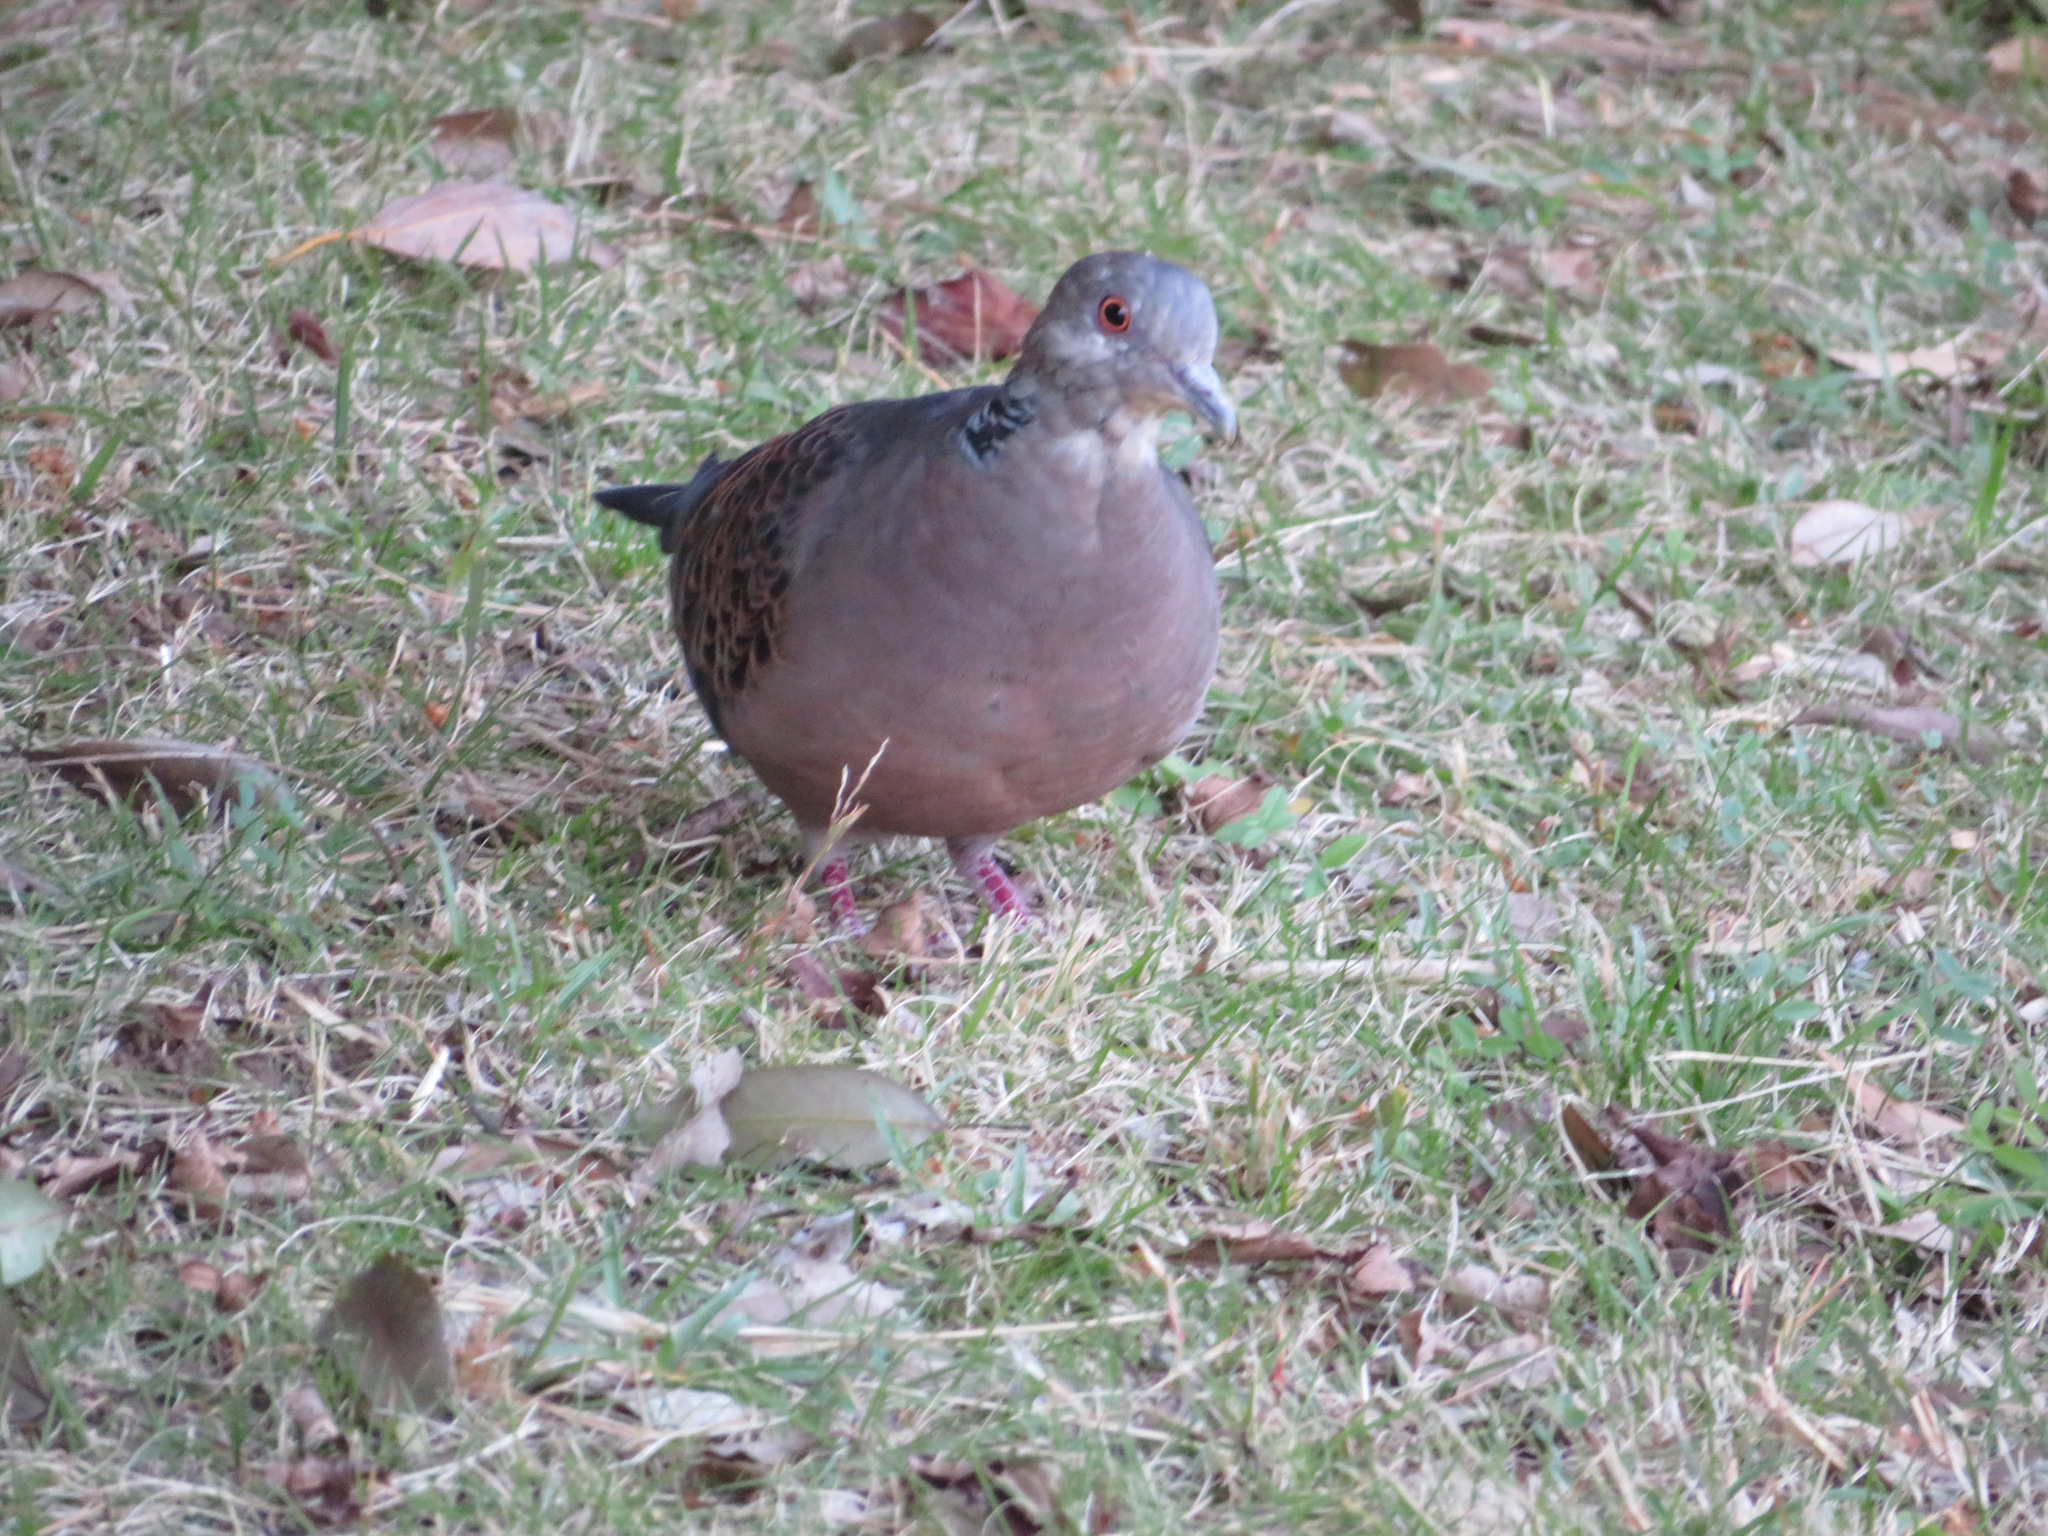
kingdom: Animalia
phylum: Chordata
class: Aves
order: Columbiformes
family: Columbidae
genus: Streptopelia
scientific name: Streptopelia orientalis
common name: Oriental turtle dove
